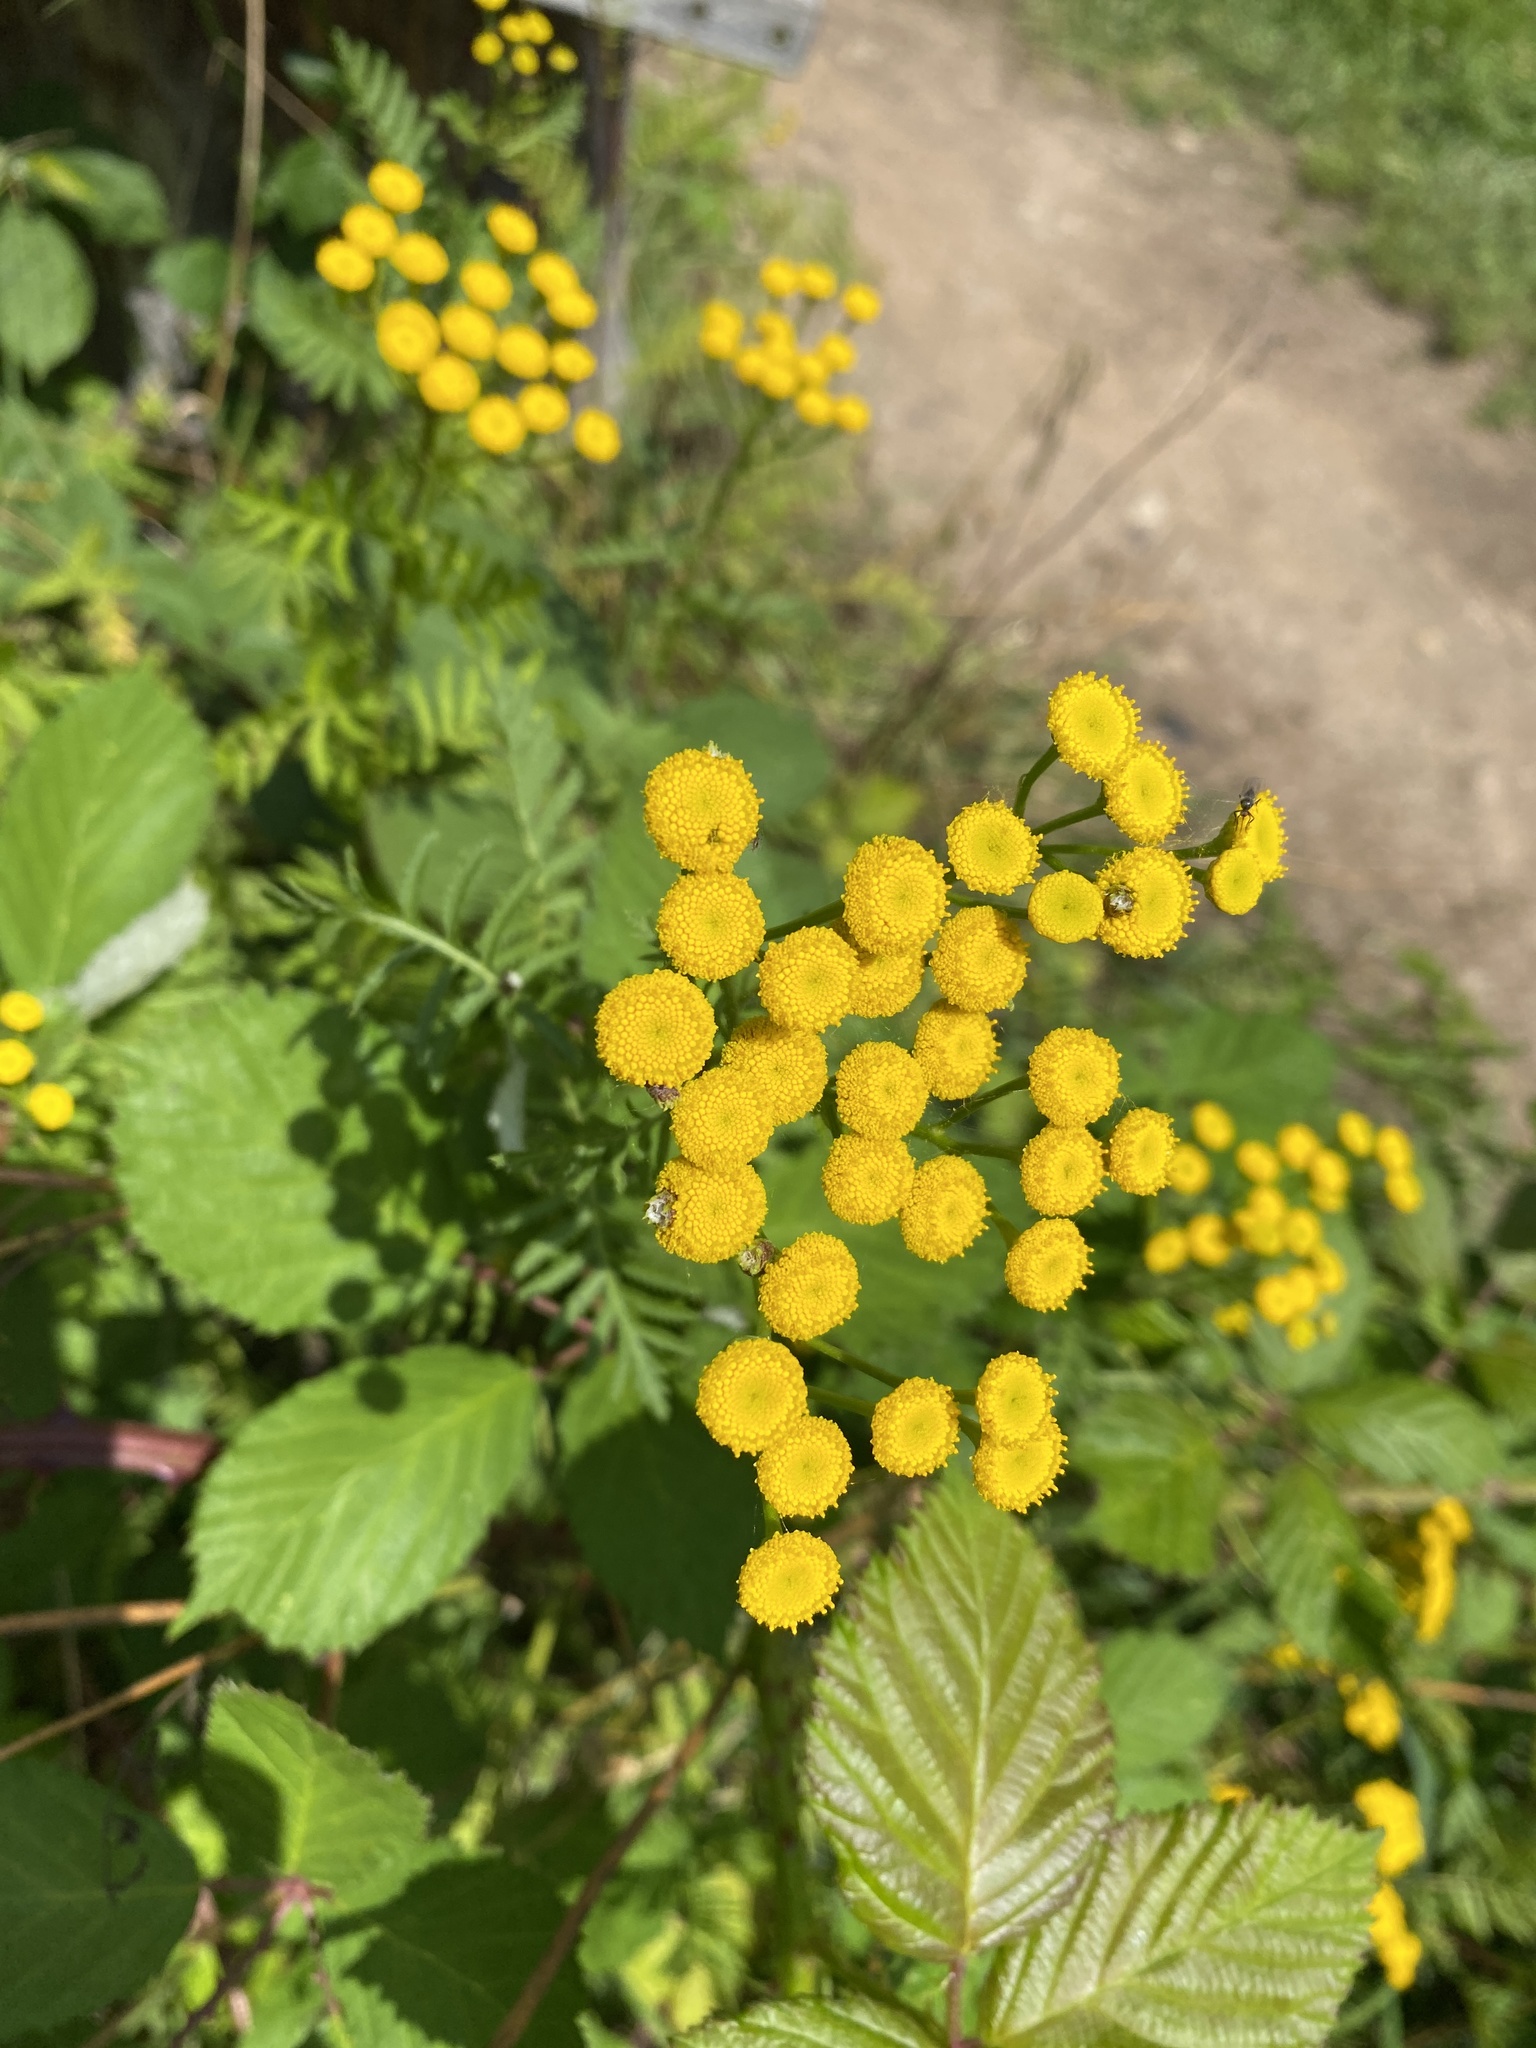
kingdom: Plantae
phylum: Tracheophyta
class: Magnoliopsida
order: Asterales
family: Asteraceae
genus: Tanacetum
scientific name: Tanacetum vulgare
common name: Common tansy
